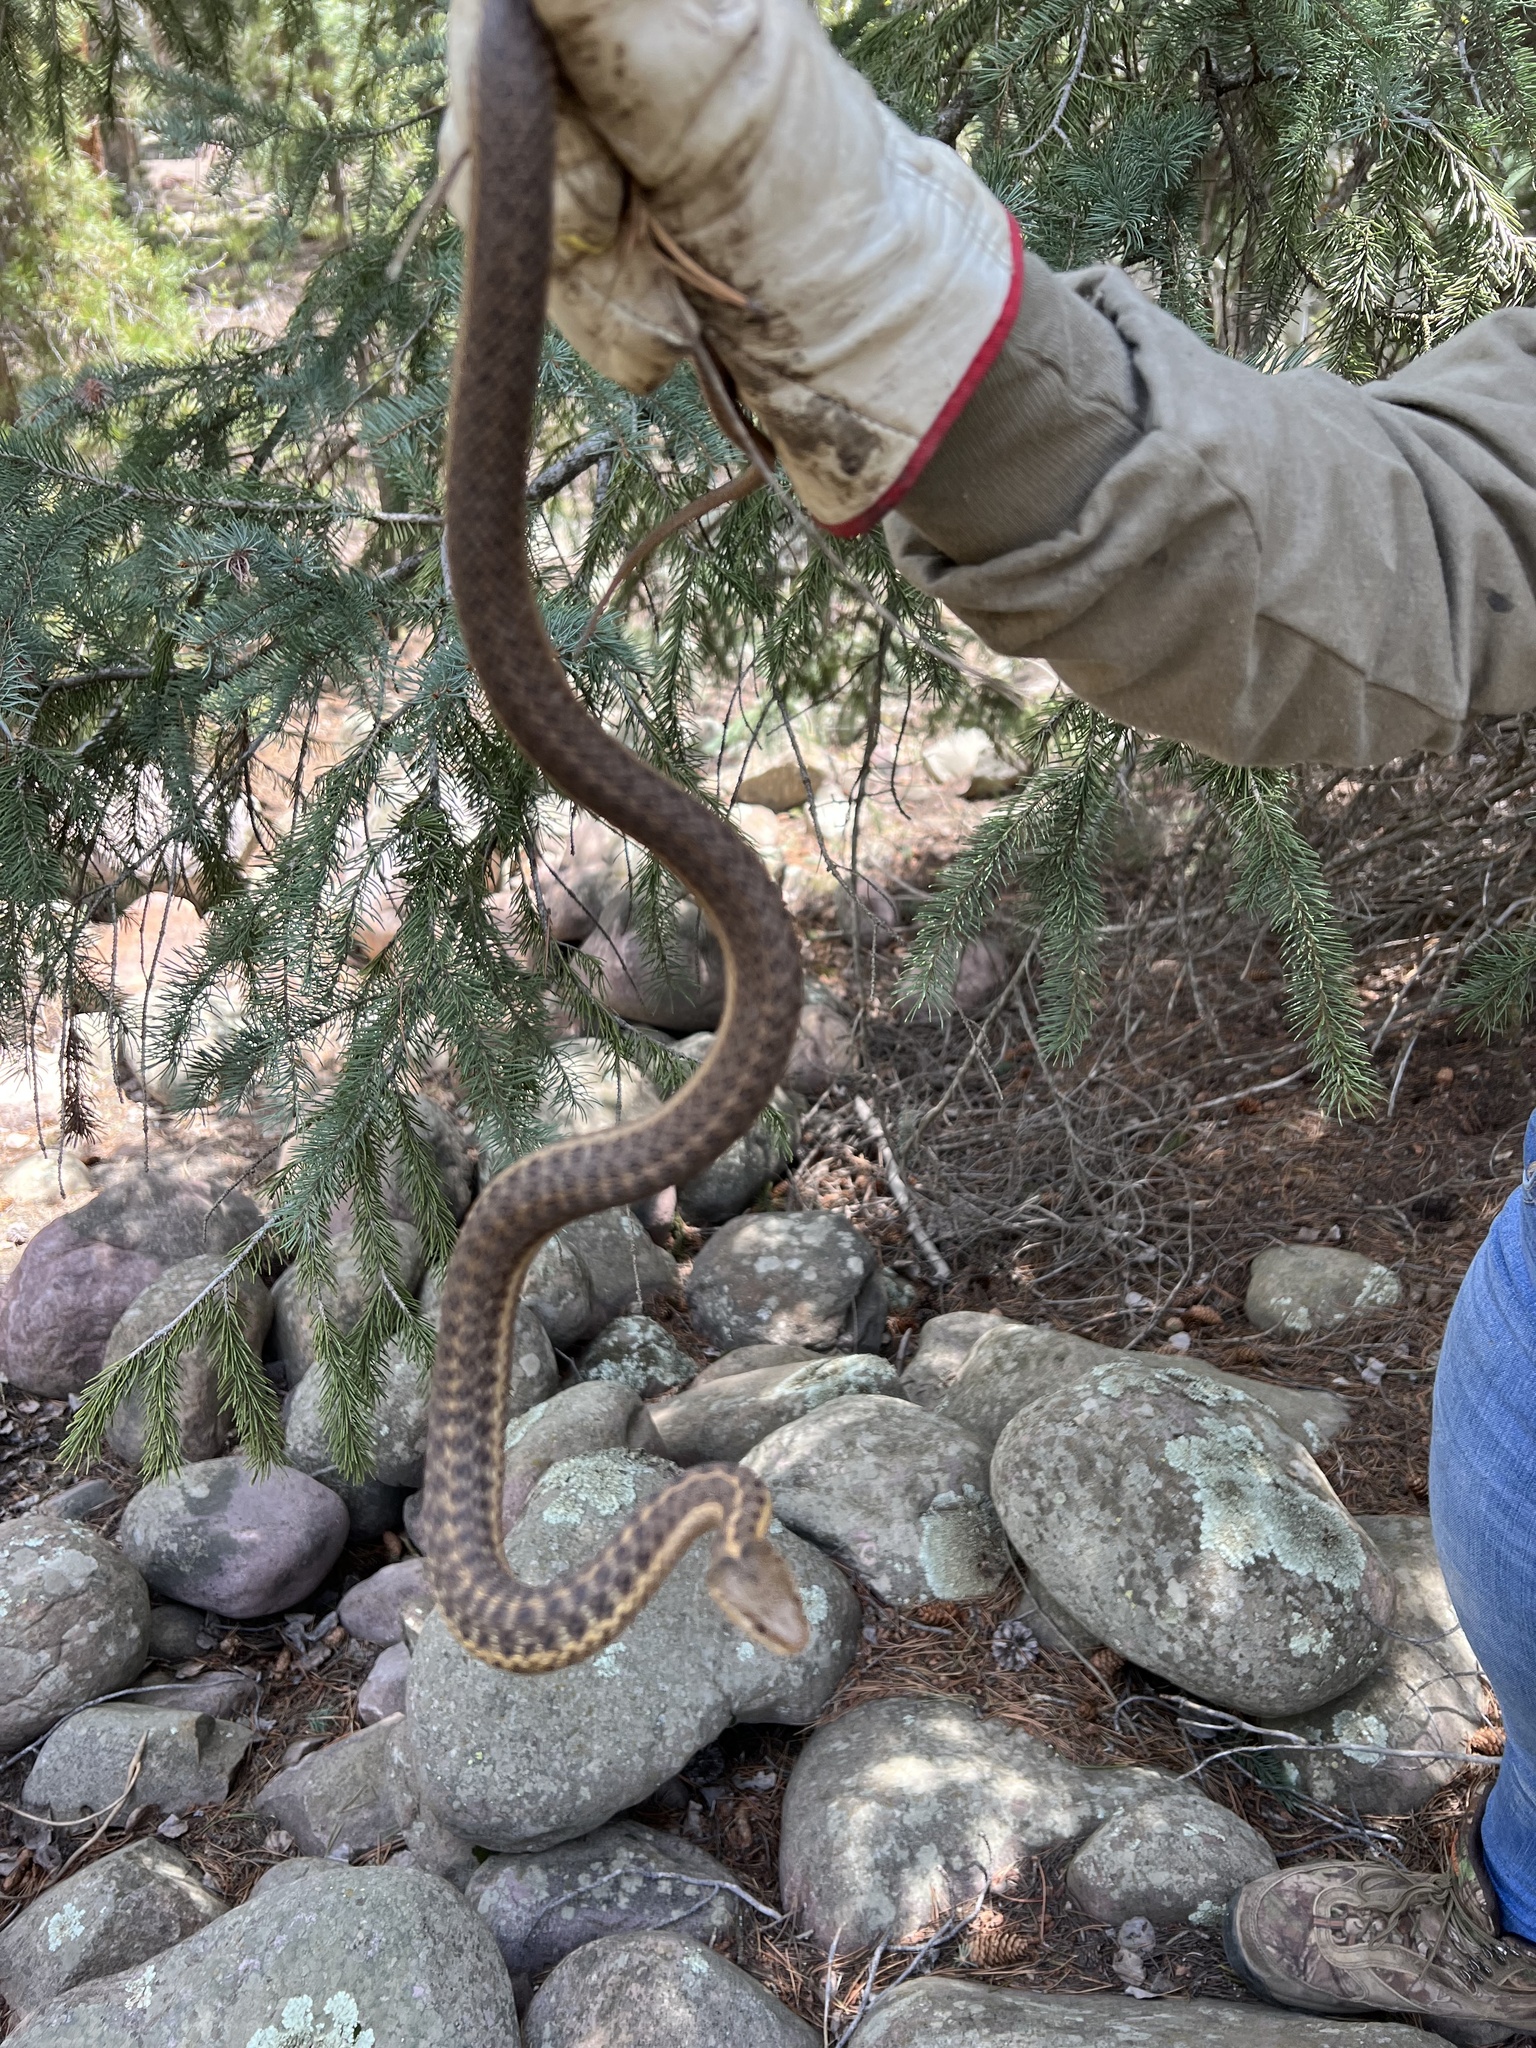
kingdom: Animalia
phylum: Chordata
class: Squamata
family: Colubridae
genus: Thamnophis
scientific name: Thamnophis elegans
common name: Western terrestrial garter snake
